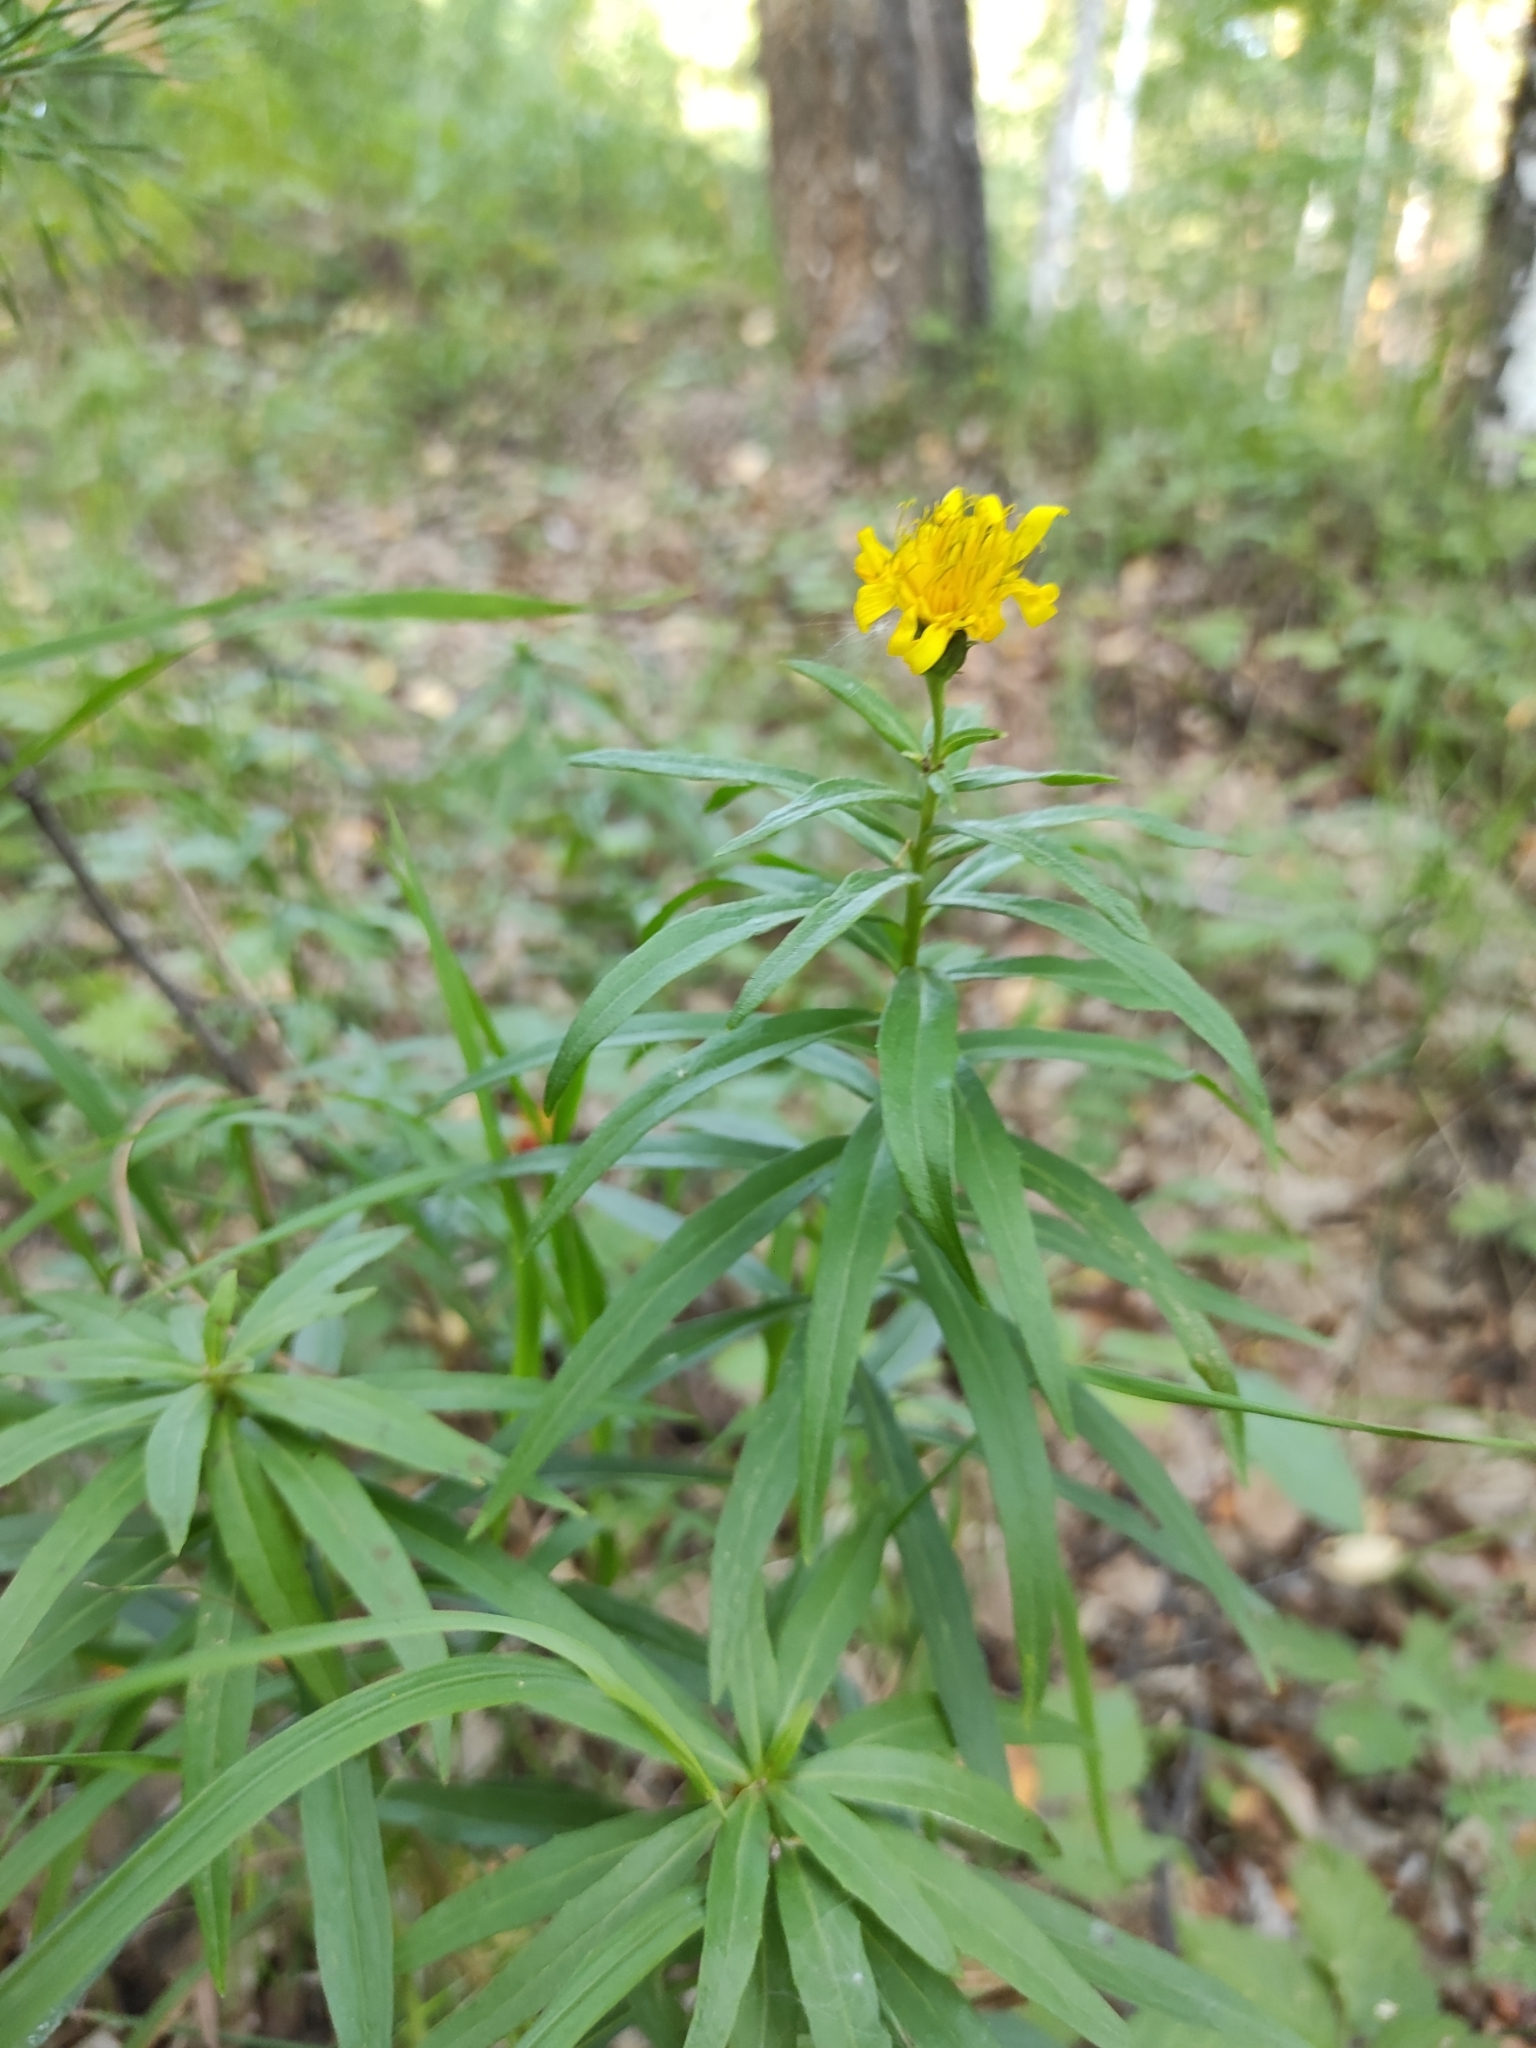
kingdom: Plantae
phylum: Tracheophyta
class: Magnoliopsida
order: Asterales
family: Asteraceae
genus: Hieracium
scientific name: Hieracium umbellatum
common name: Northern hawkweed
